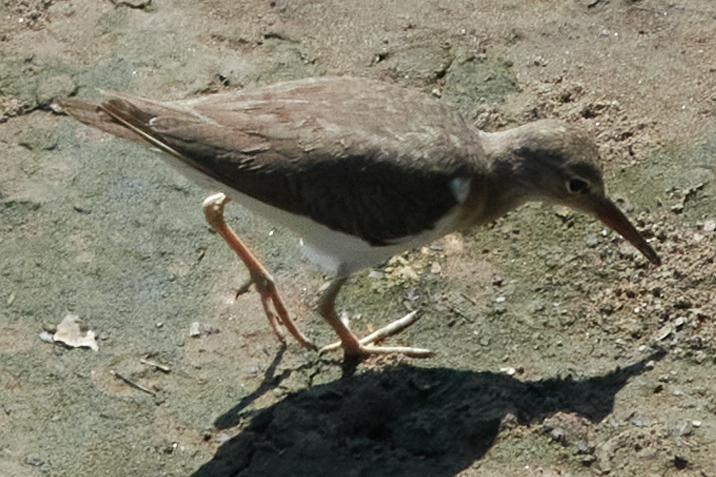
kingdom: Animalia
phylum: Chordata
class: Aves
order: Charadriiformes
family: Scolopacidae
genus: Actitis
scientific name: Actitis macularius
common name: Spotted sandpiper
